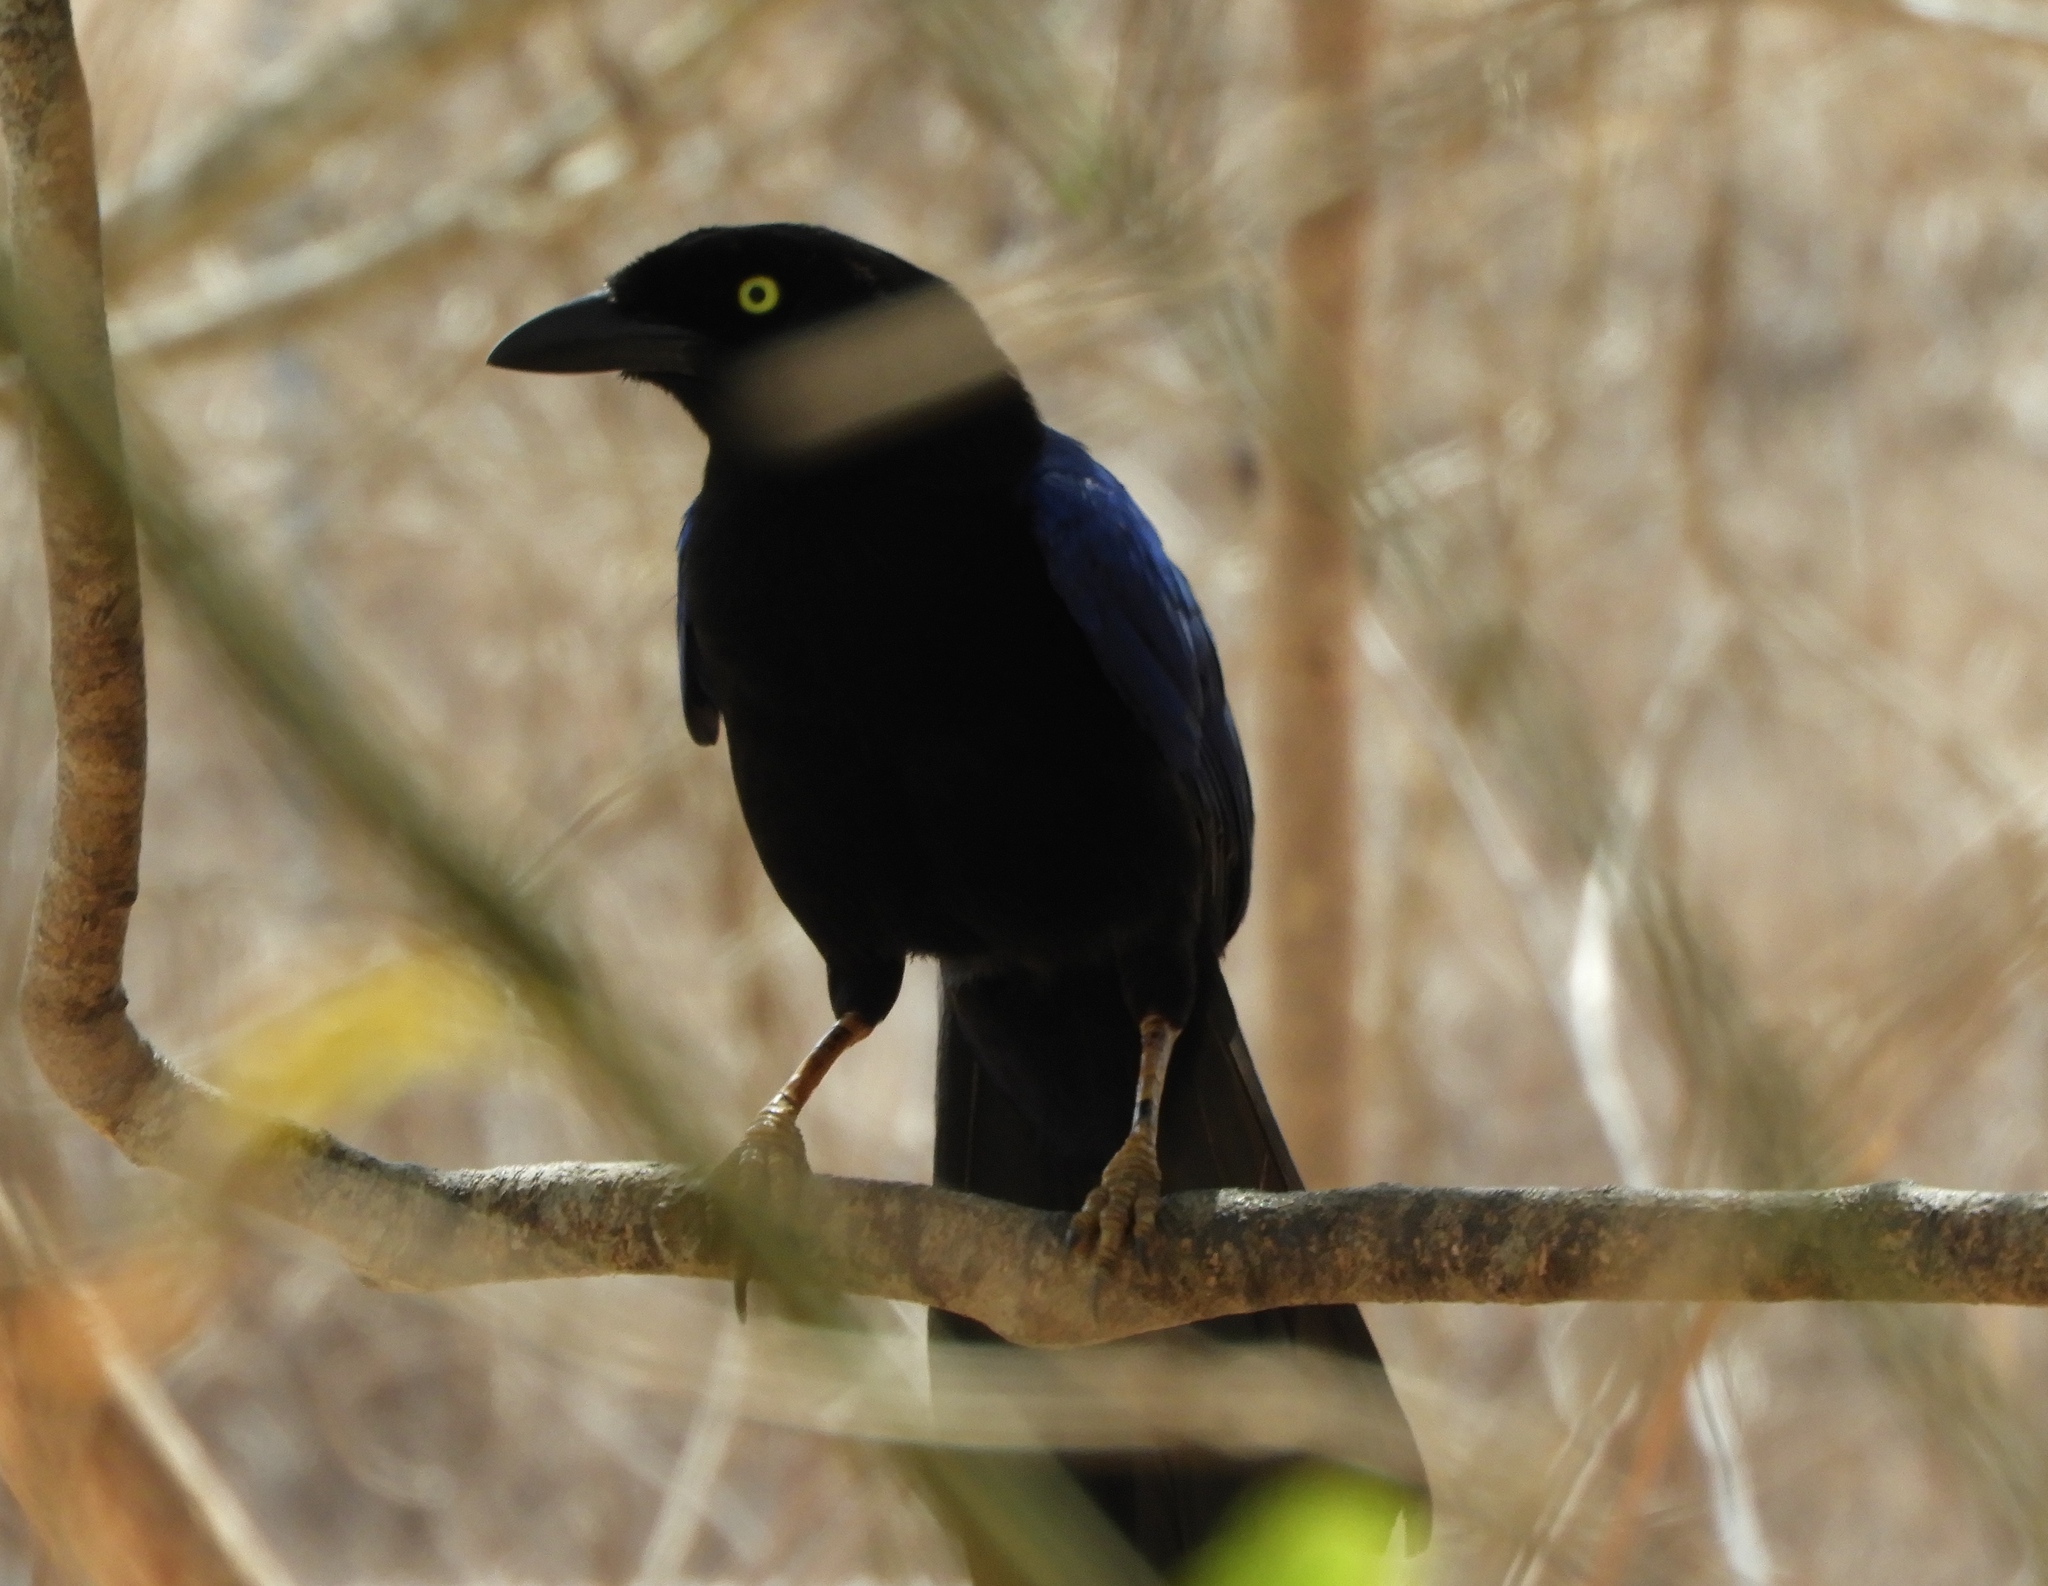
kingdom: Animalia
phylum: Chordata
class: Aves
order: Passeriformes
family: Corvidae
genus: Cyanocorax
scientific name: Cyanocorax beecheii
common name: Purplish-backed jay
